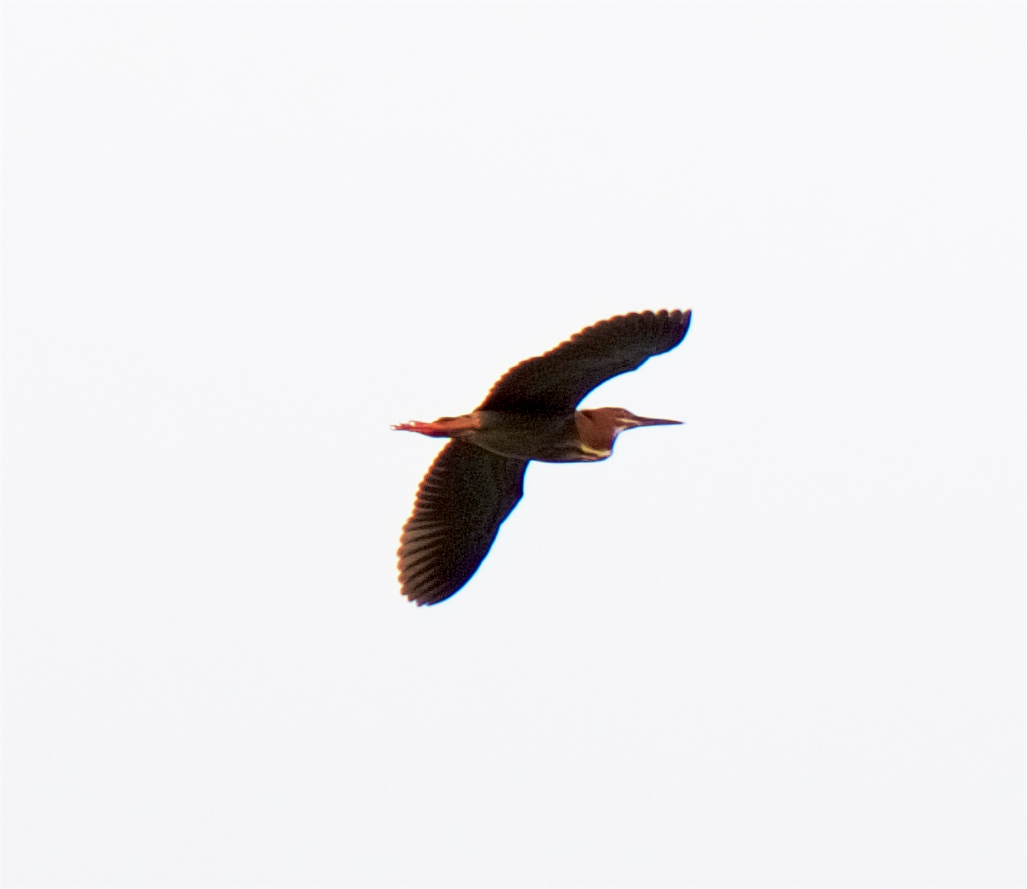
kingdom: Animalia
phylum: Chordata
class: Aves
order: Pelecaniformes
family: Ardeidae
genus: Butorides
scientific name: Butorides virescens
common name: Green heron
